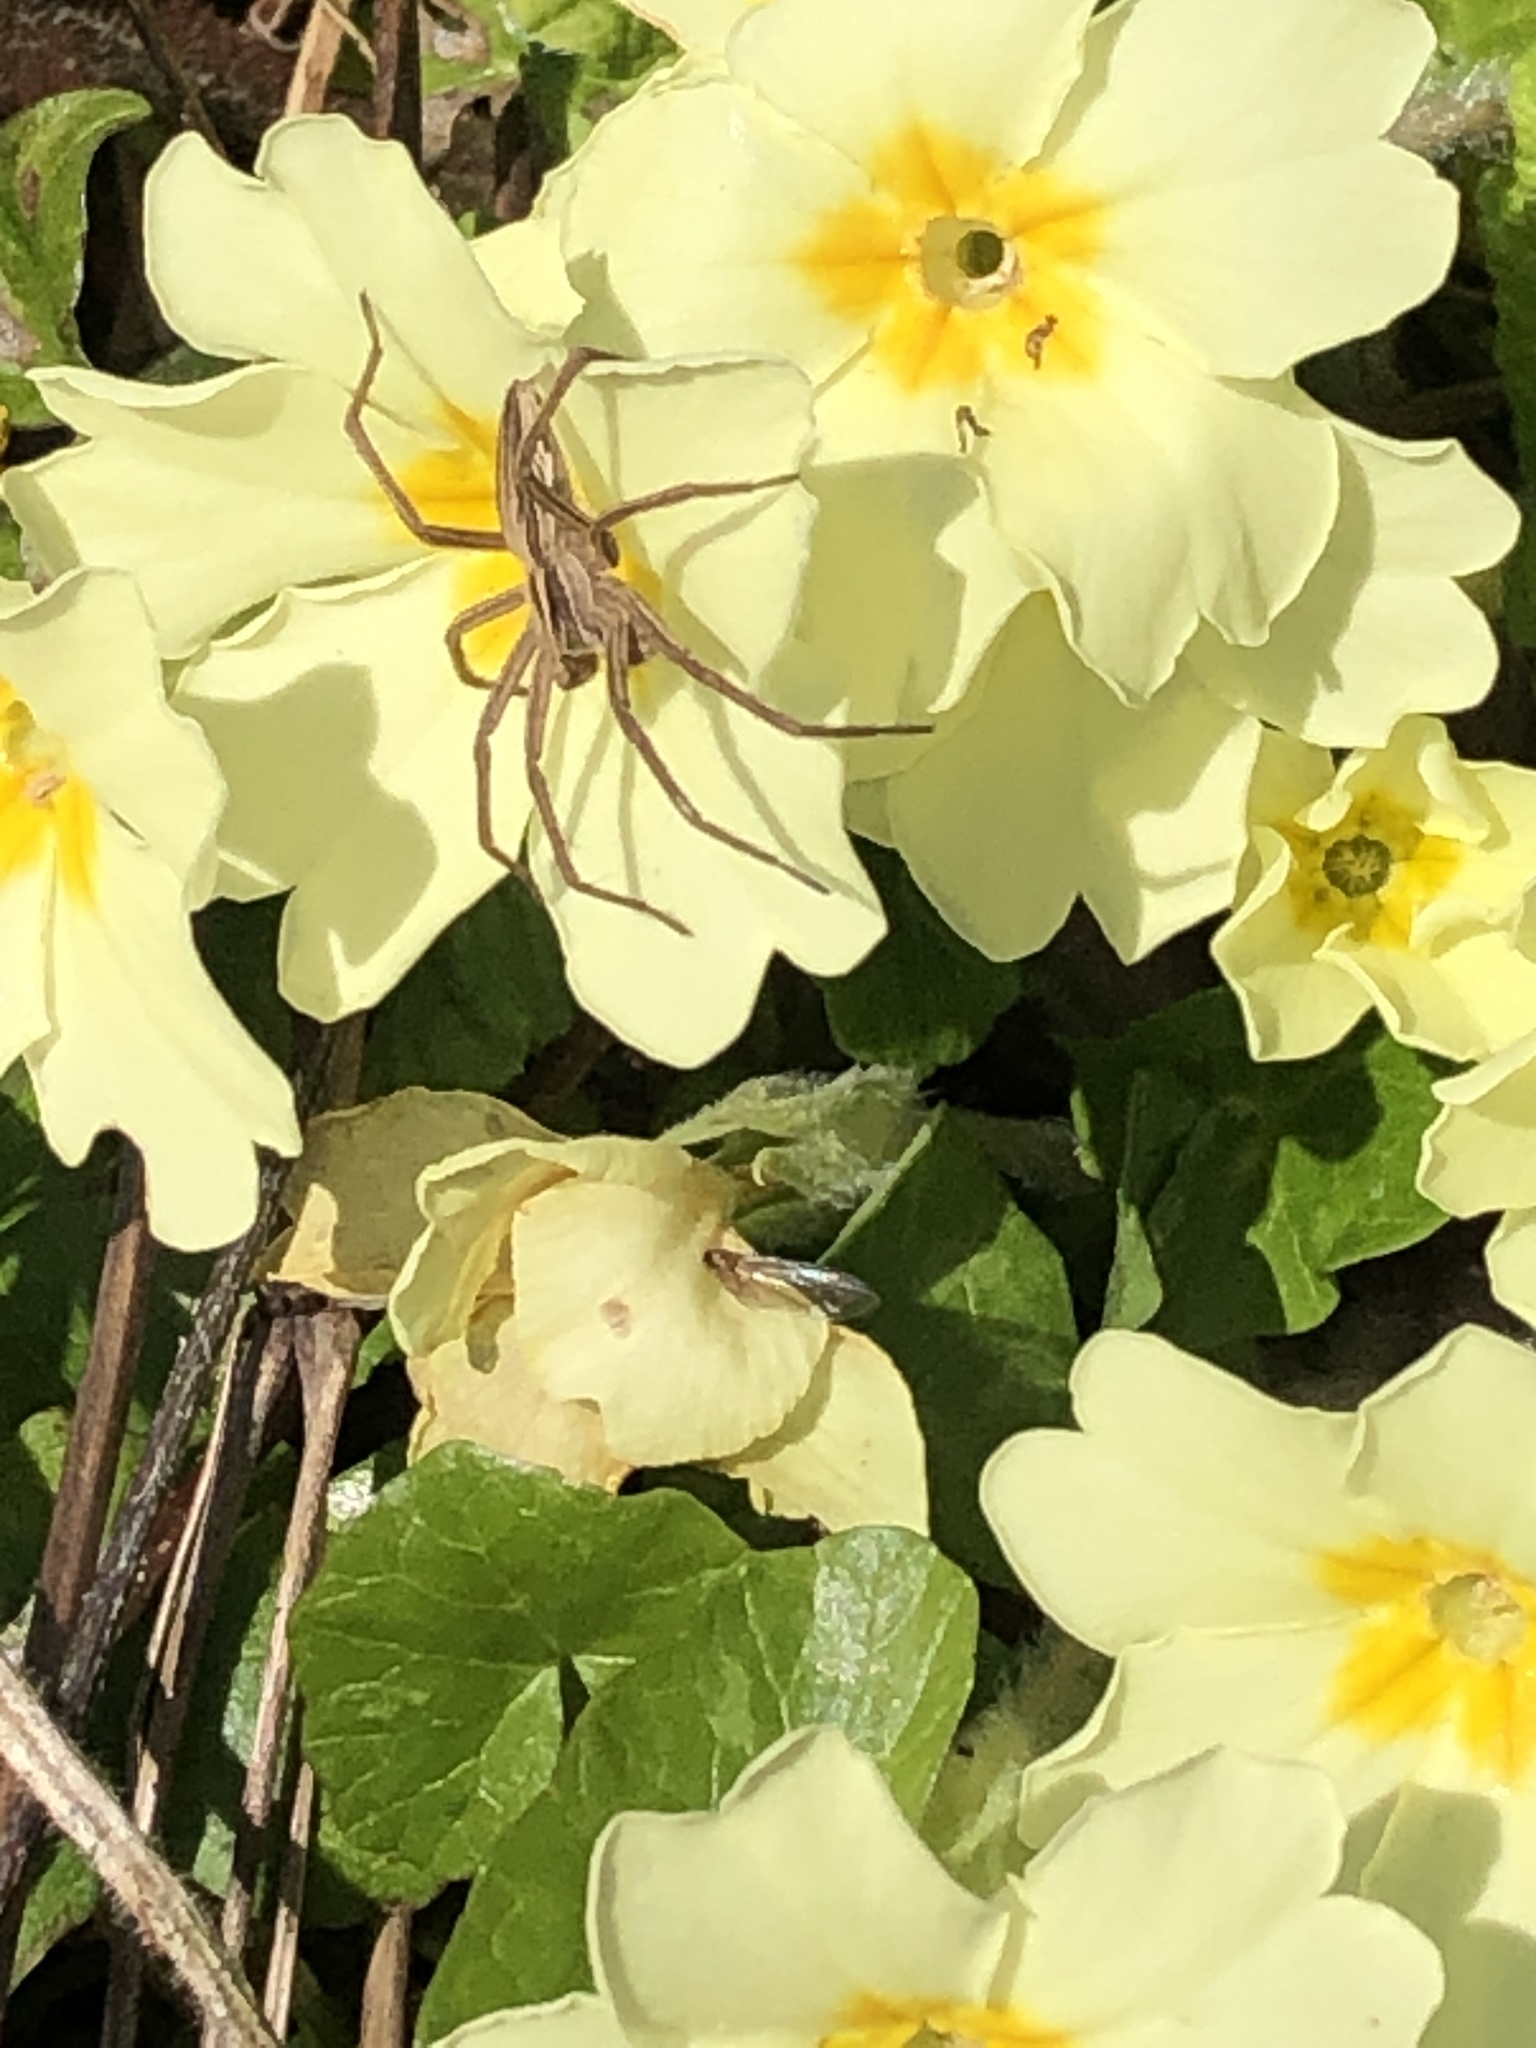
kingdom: Animalia
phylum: Arthropoda
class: Arachnida
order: Araneae
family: Pisauridae
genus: Pisaura
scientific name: Pisaura mirabilis
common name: Tent spider
